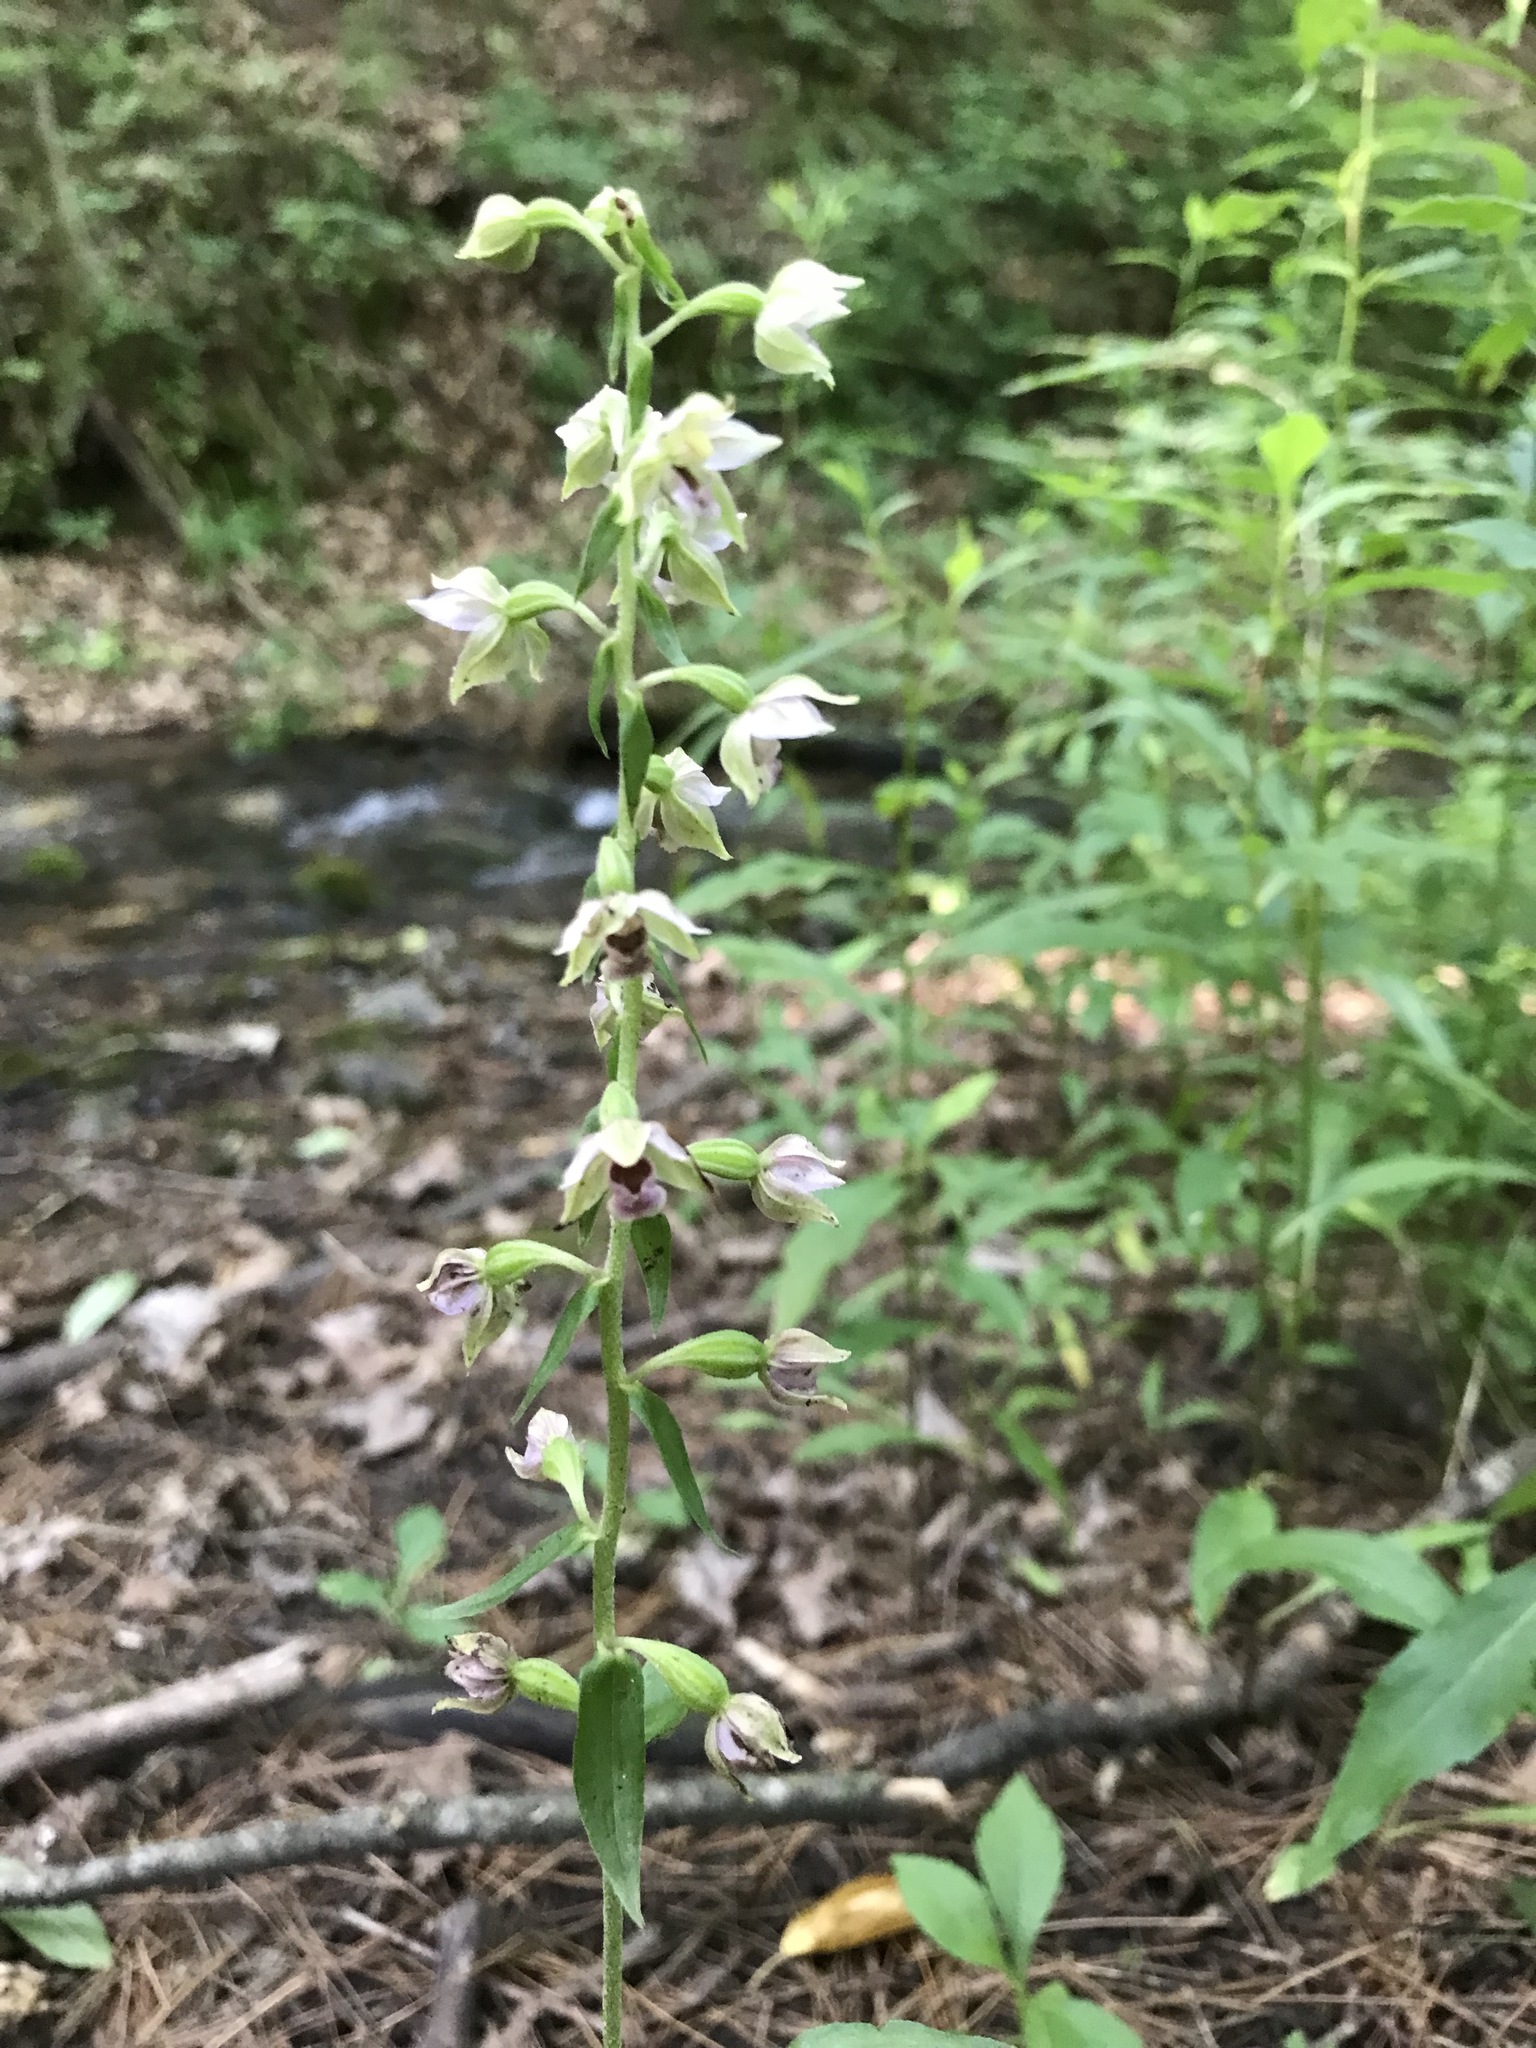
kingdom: Plantae
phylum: Tracheophyta
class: Liliopsida
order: Asparagales
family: Orchidaceae
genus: Epipactis
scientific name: Epipactis helleborine
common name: Broad-leaved helleborine
